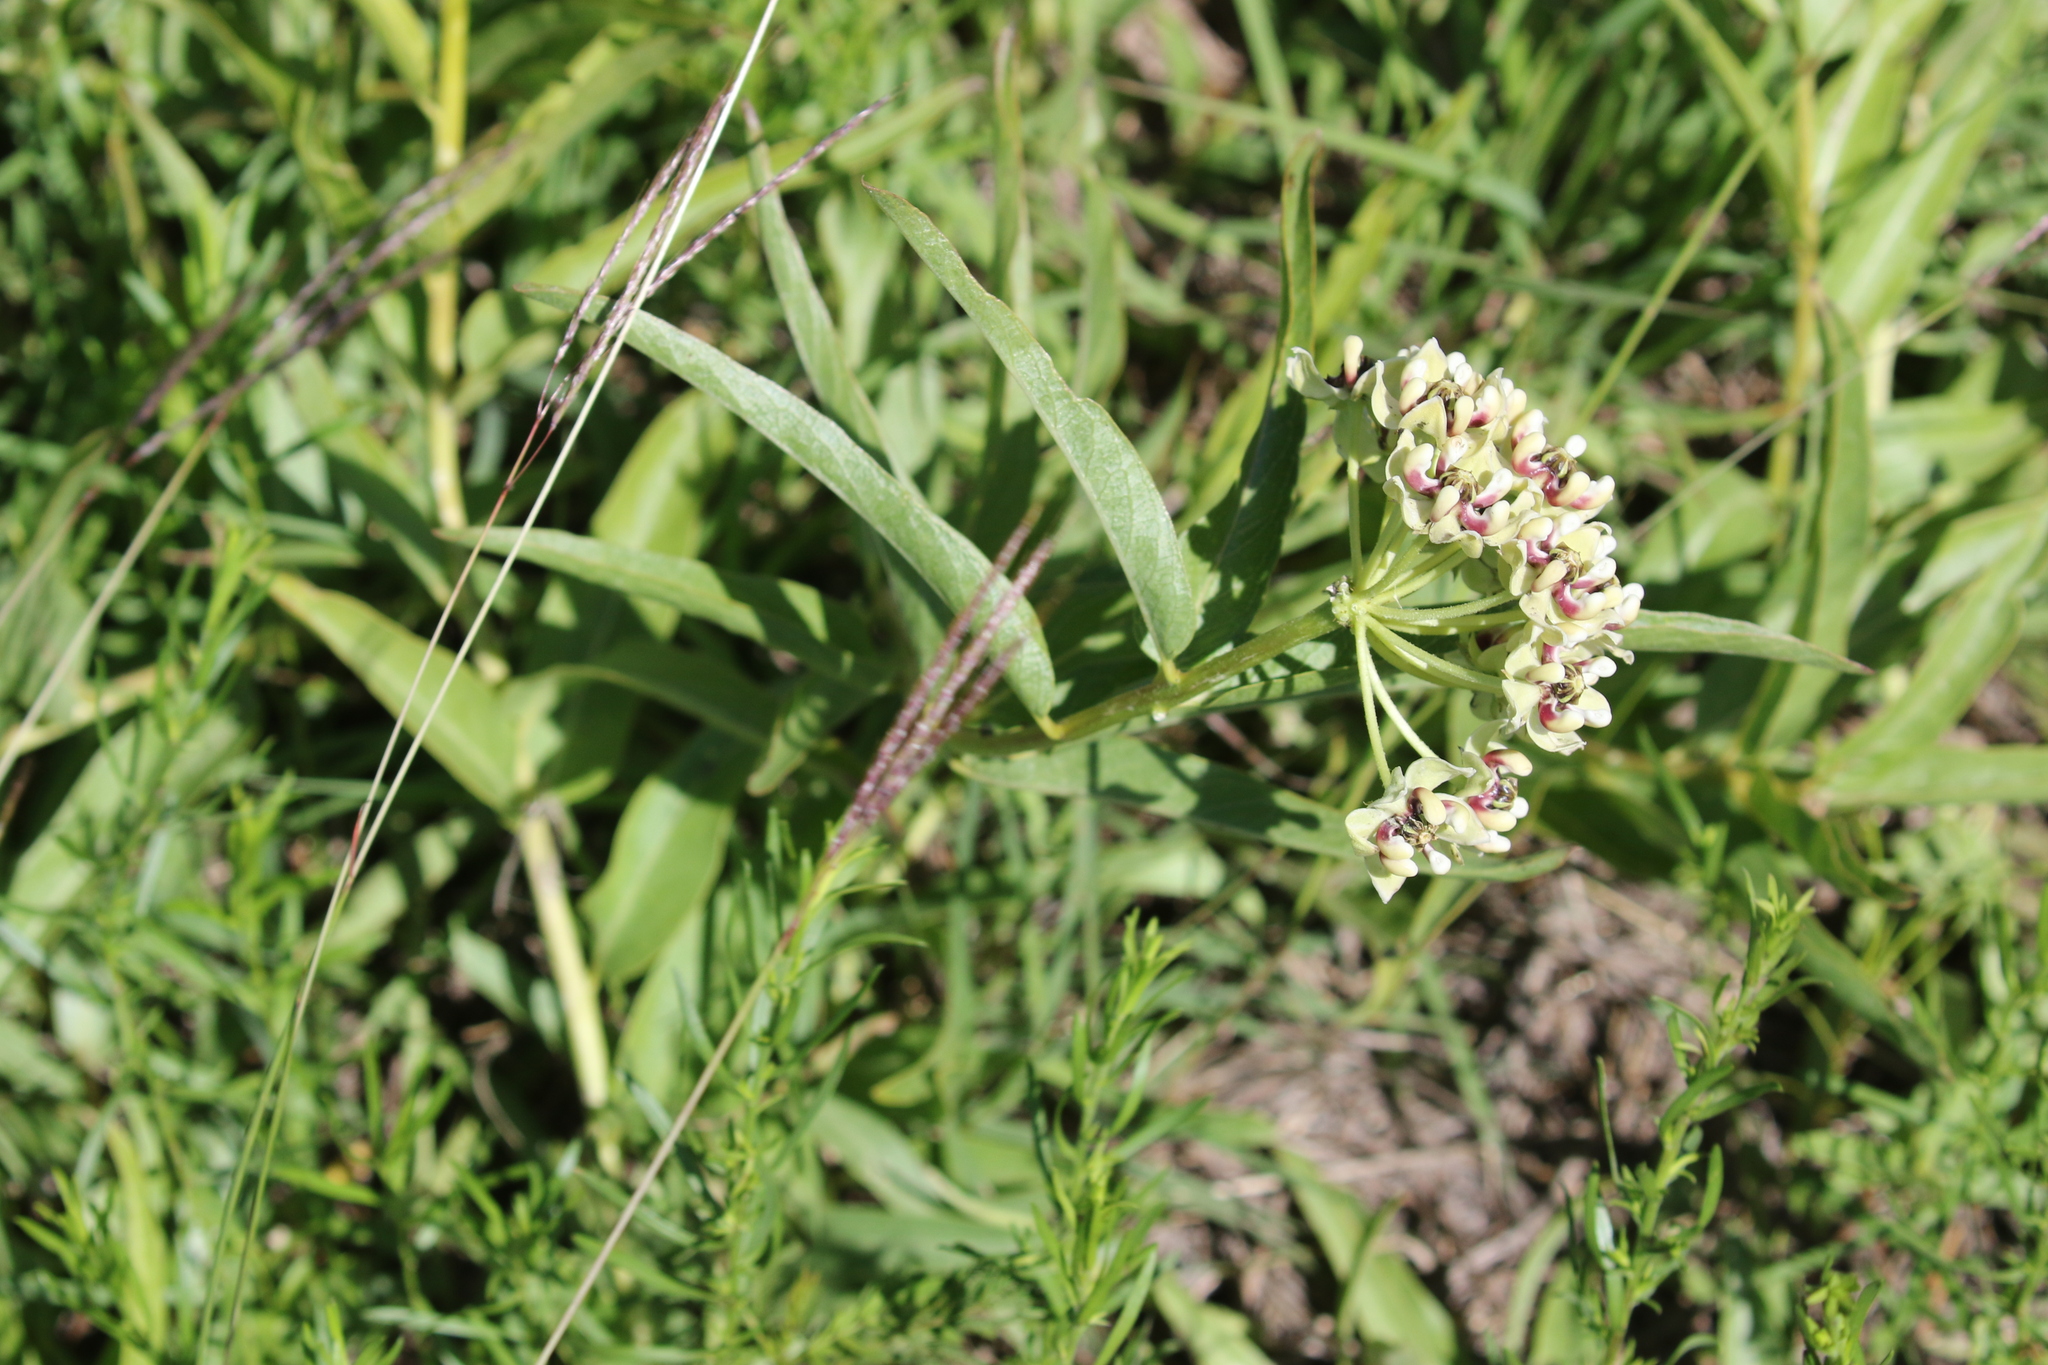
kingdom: Plantae
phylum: Tracheophyta
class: Magnoliopsida
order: Gentianales
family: Apocynaceae
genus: Asclepias
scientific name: Asclepias asperula
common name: Antelope horns
